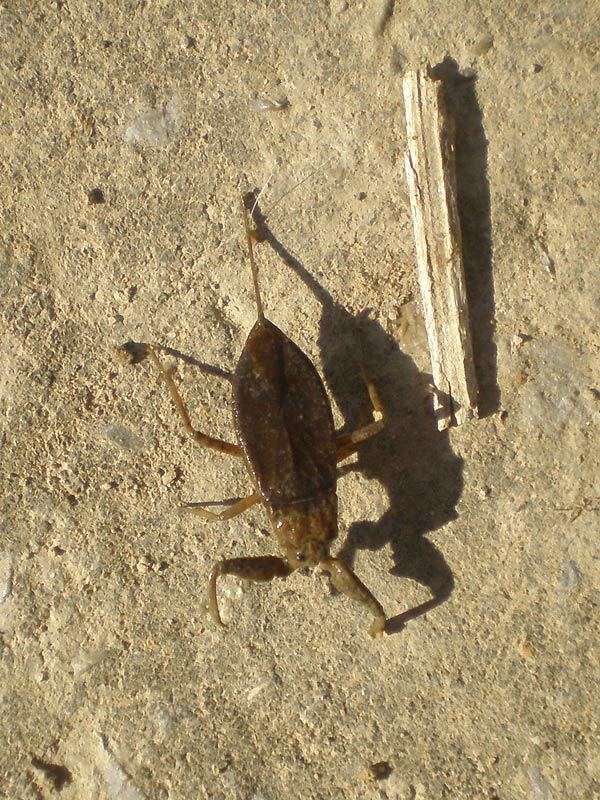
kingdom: Animalia
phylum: Arthropoda
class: Insecta
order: Hemiptera
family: Nepidae
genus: Nepa
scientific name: Nepa cinerea
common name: Water scorpion
